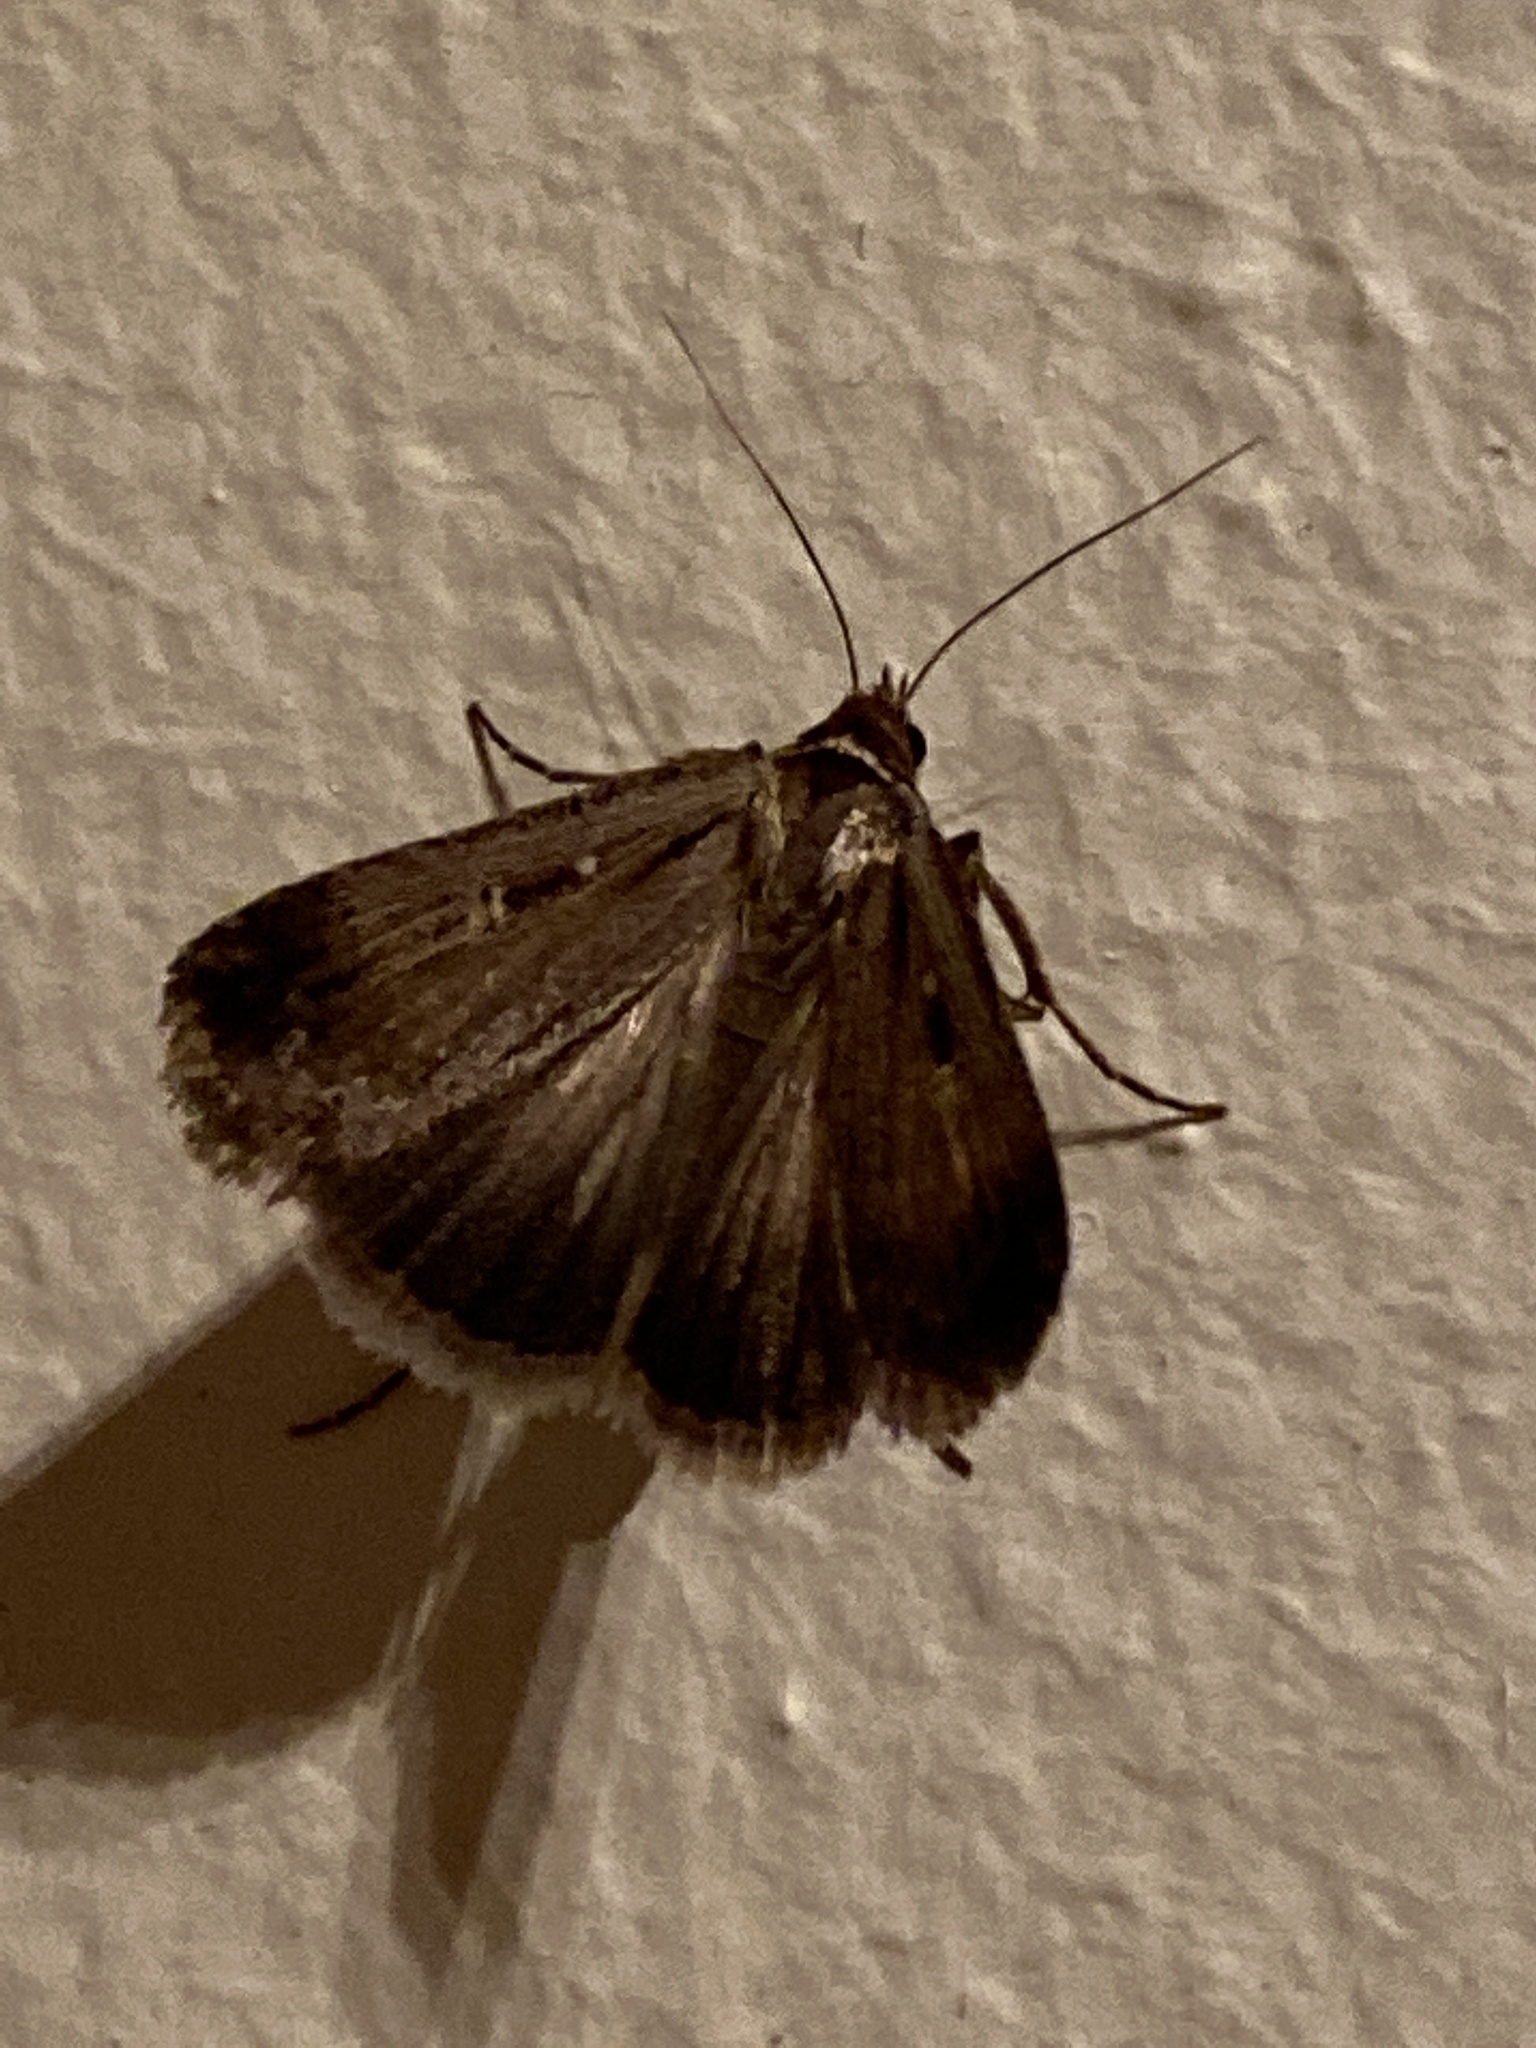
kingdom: Animalia
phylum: Arthropoda
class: Insecta
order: Lepidoptera
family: Noctuidae
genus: Tathorhynchus
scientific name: Tathorhynchus exsiccata
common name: Levant blackneck moth
